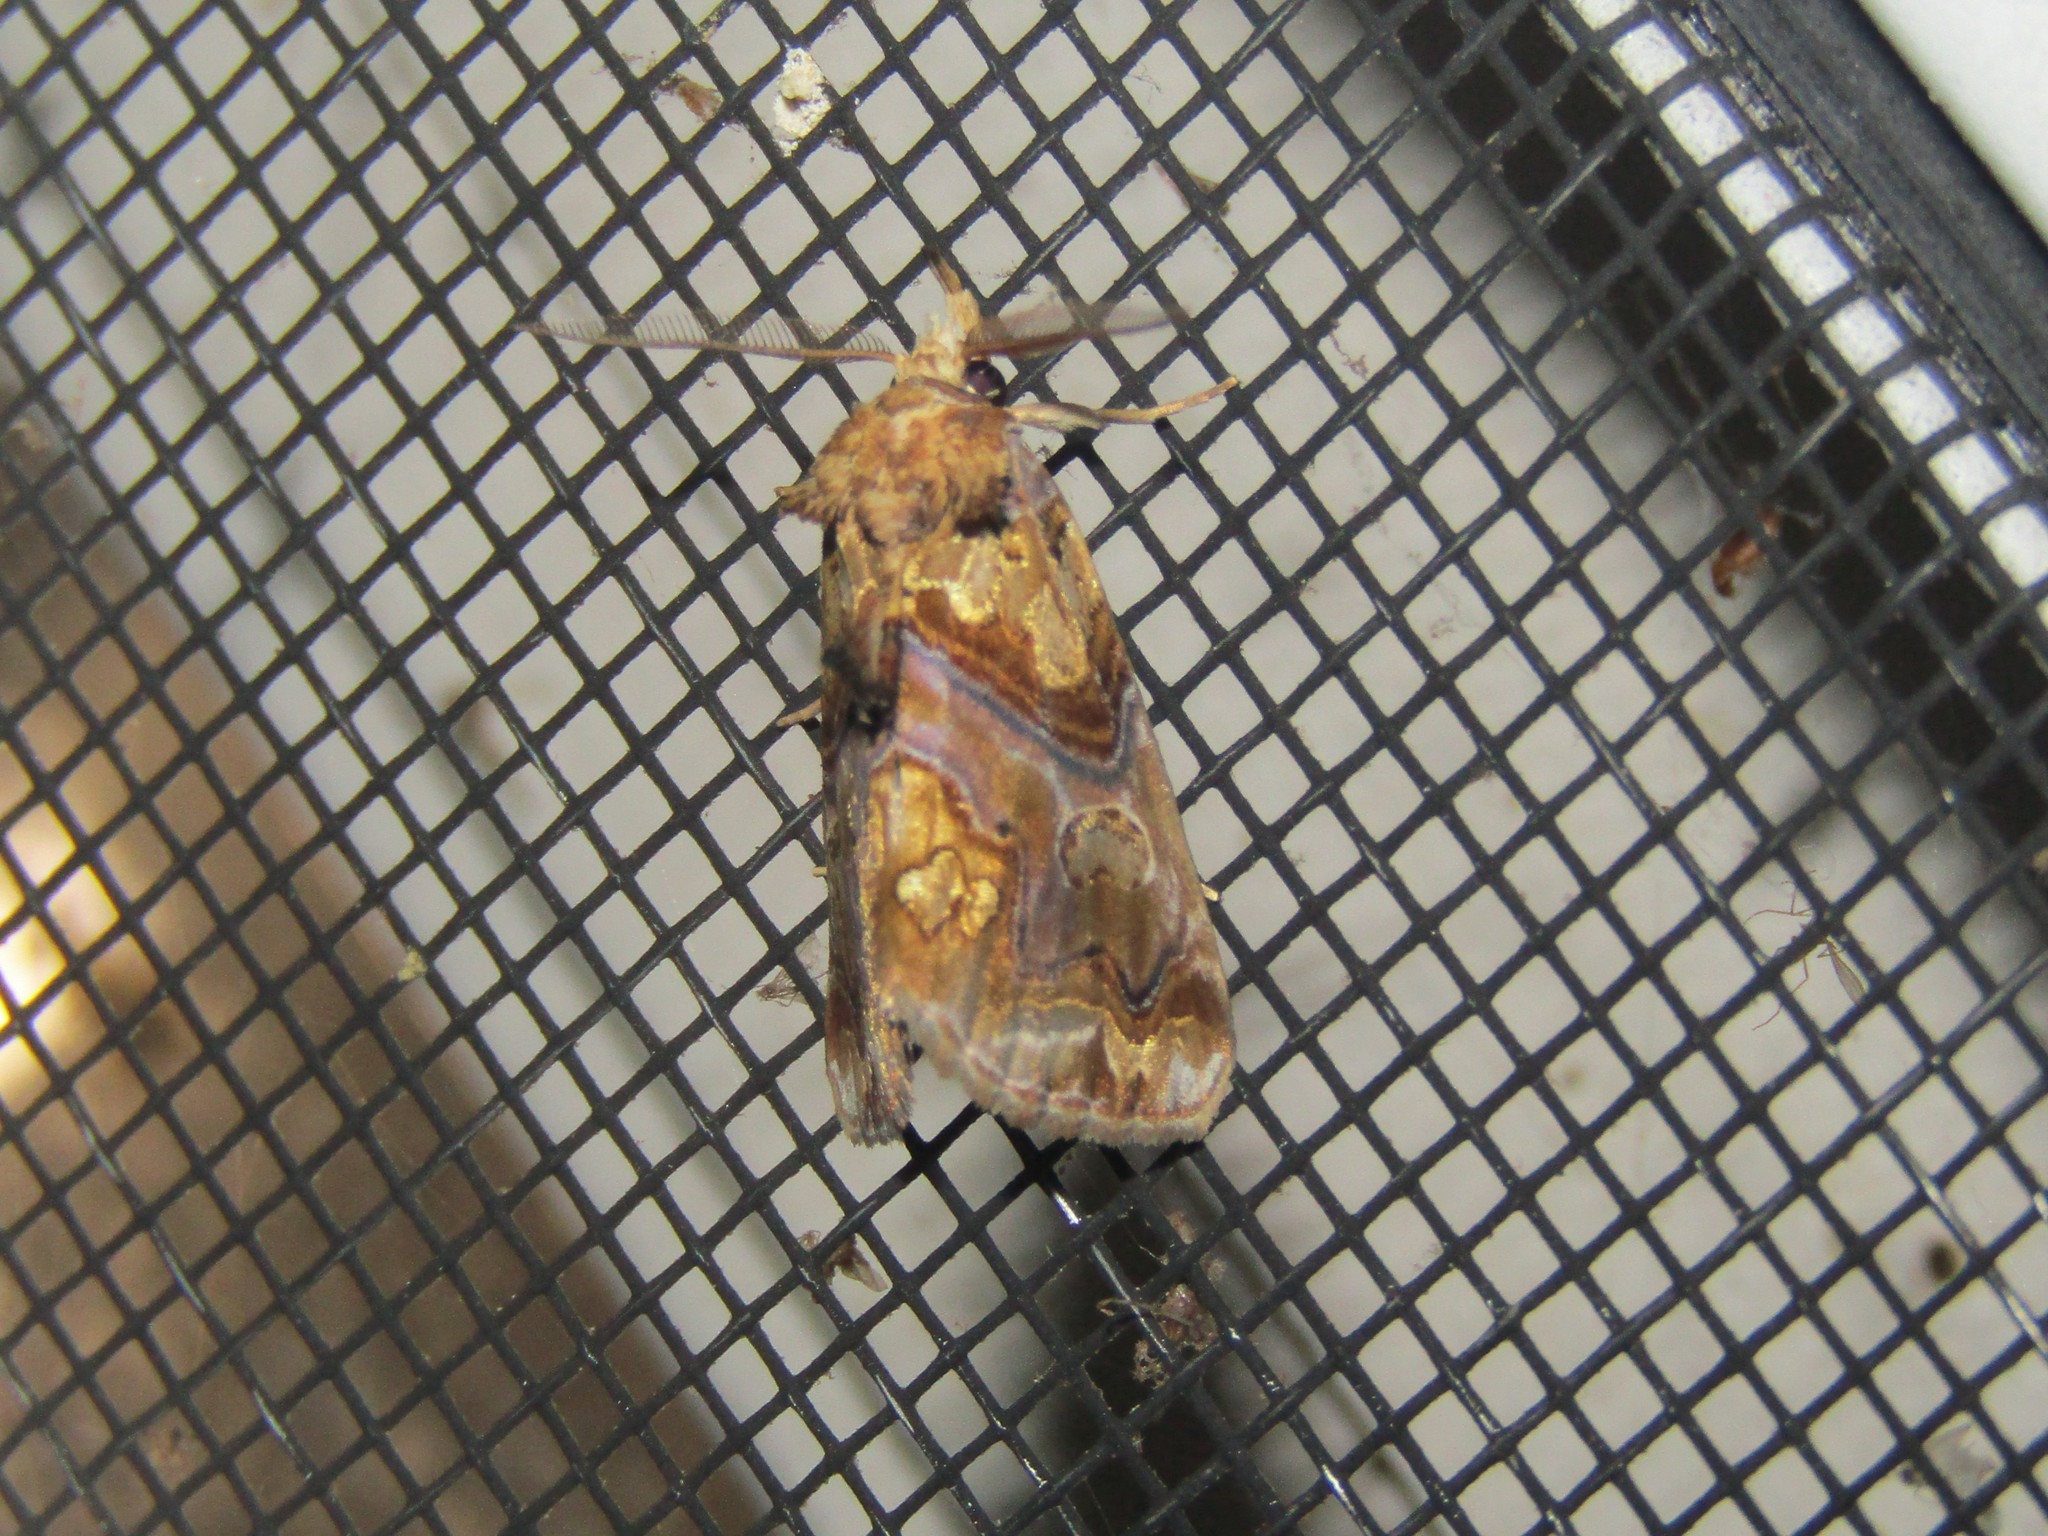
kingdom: Animalia
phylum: Arthropoda
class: Insecta
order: Lepidoptera
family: Erebidae
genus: Plusiodonta
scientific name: Plusiodonta compressipalpis
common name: Moonseed moth
